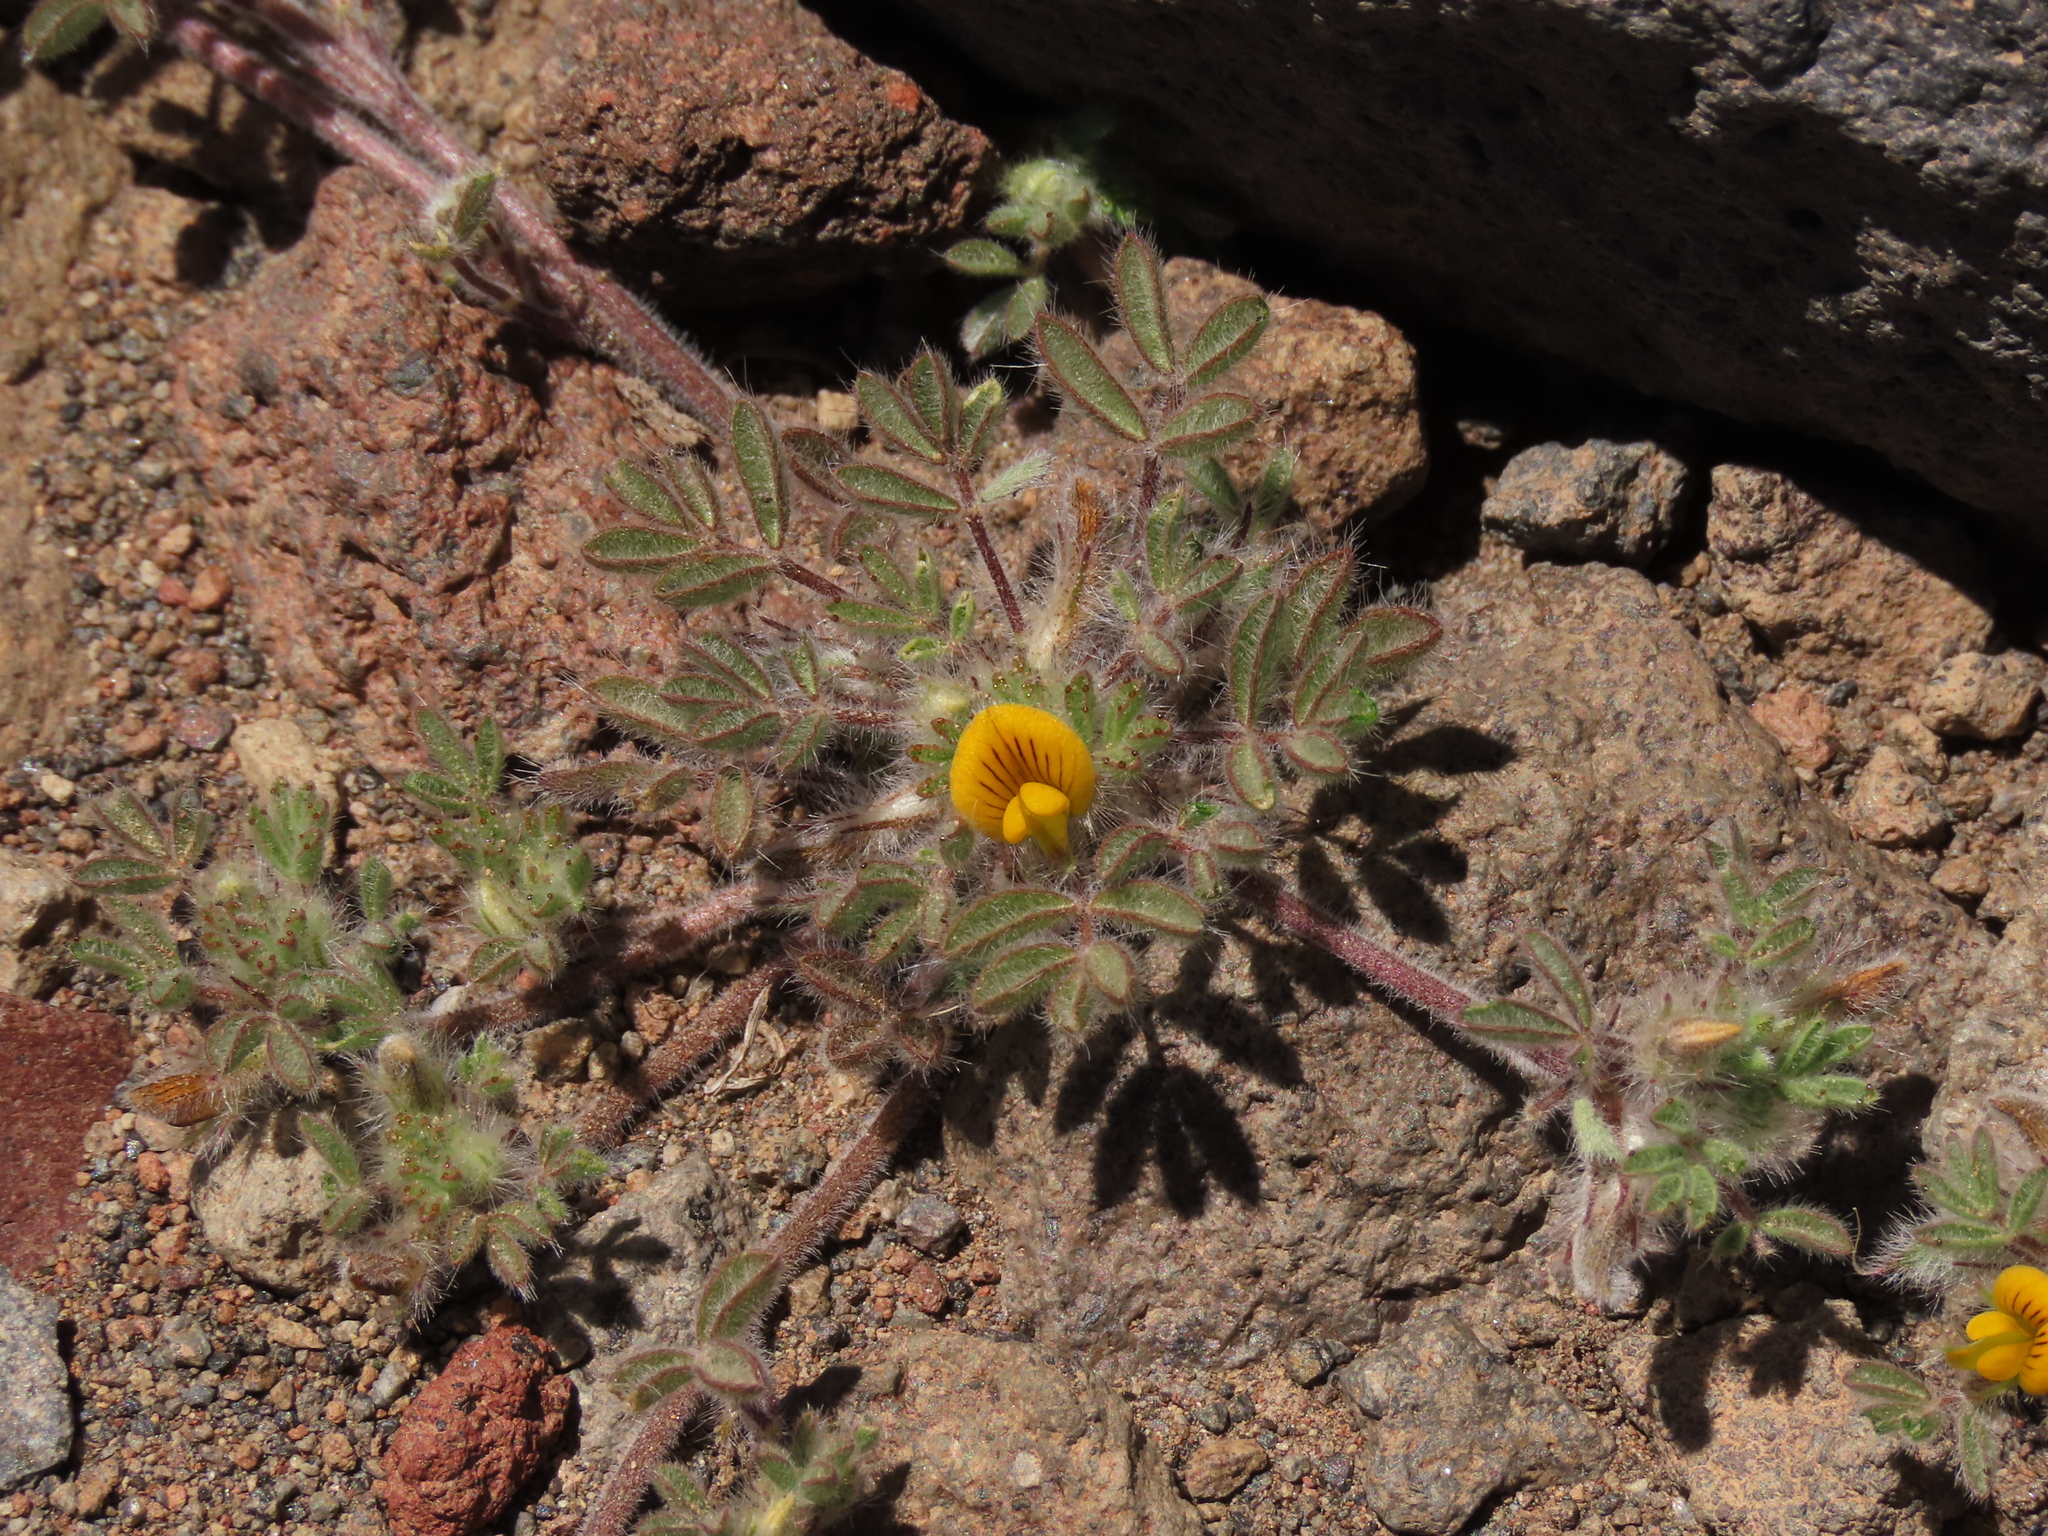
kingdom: Plantae
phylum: Tracheophyta
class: Magnoliopsida
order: Fabales
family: Fabaceae
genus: Adesmia
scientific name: Adesmia capitellata
